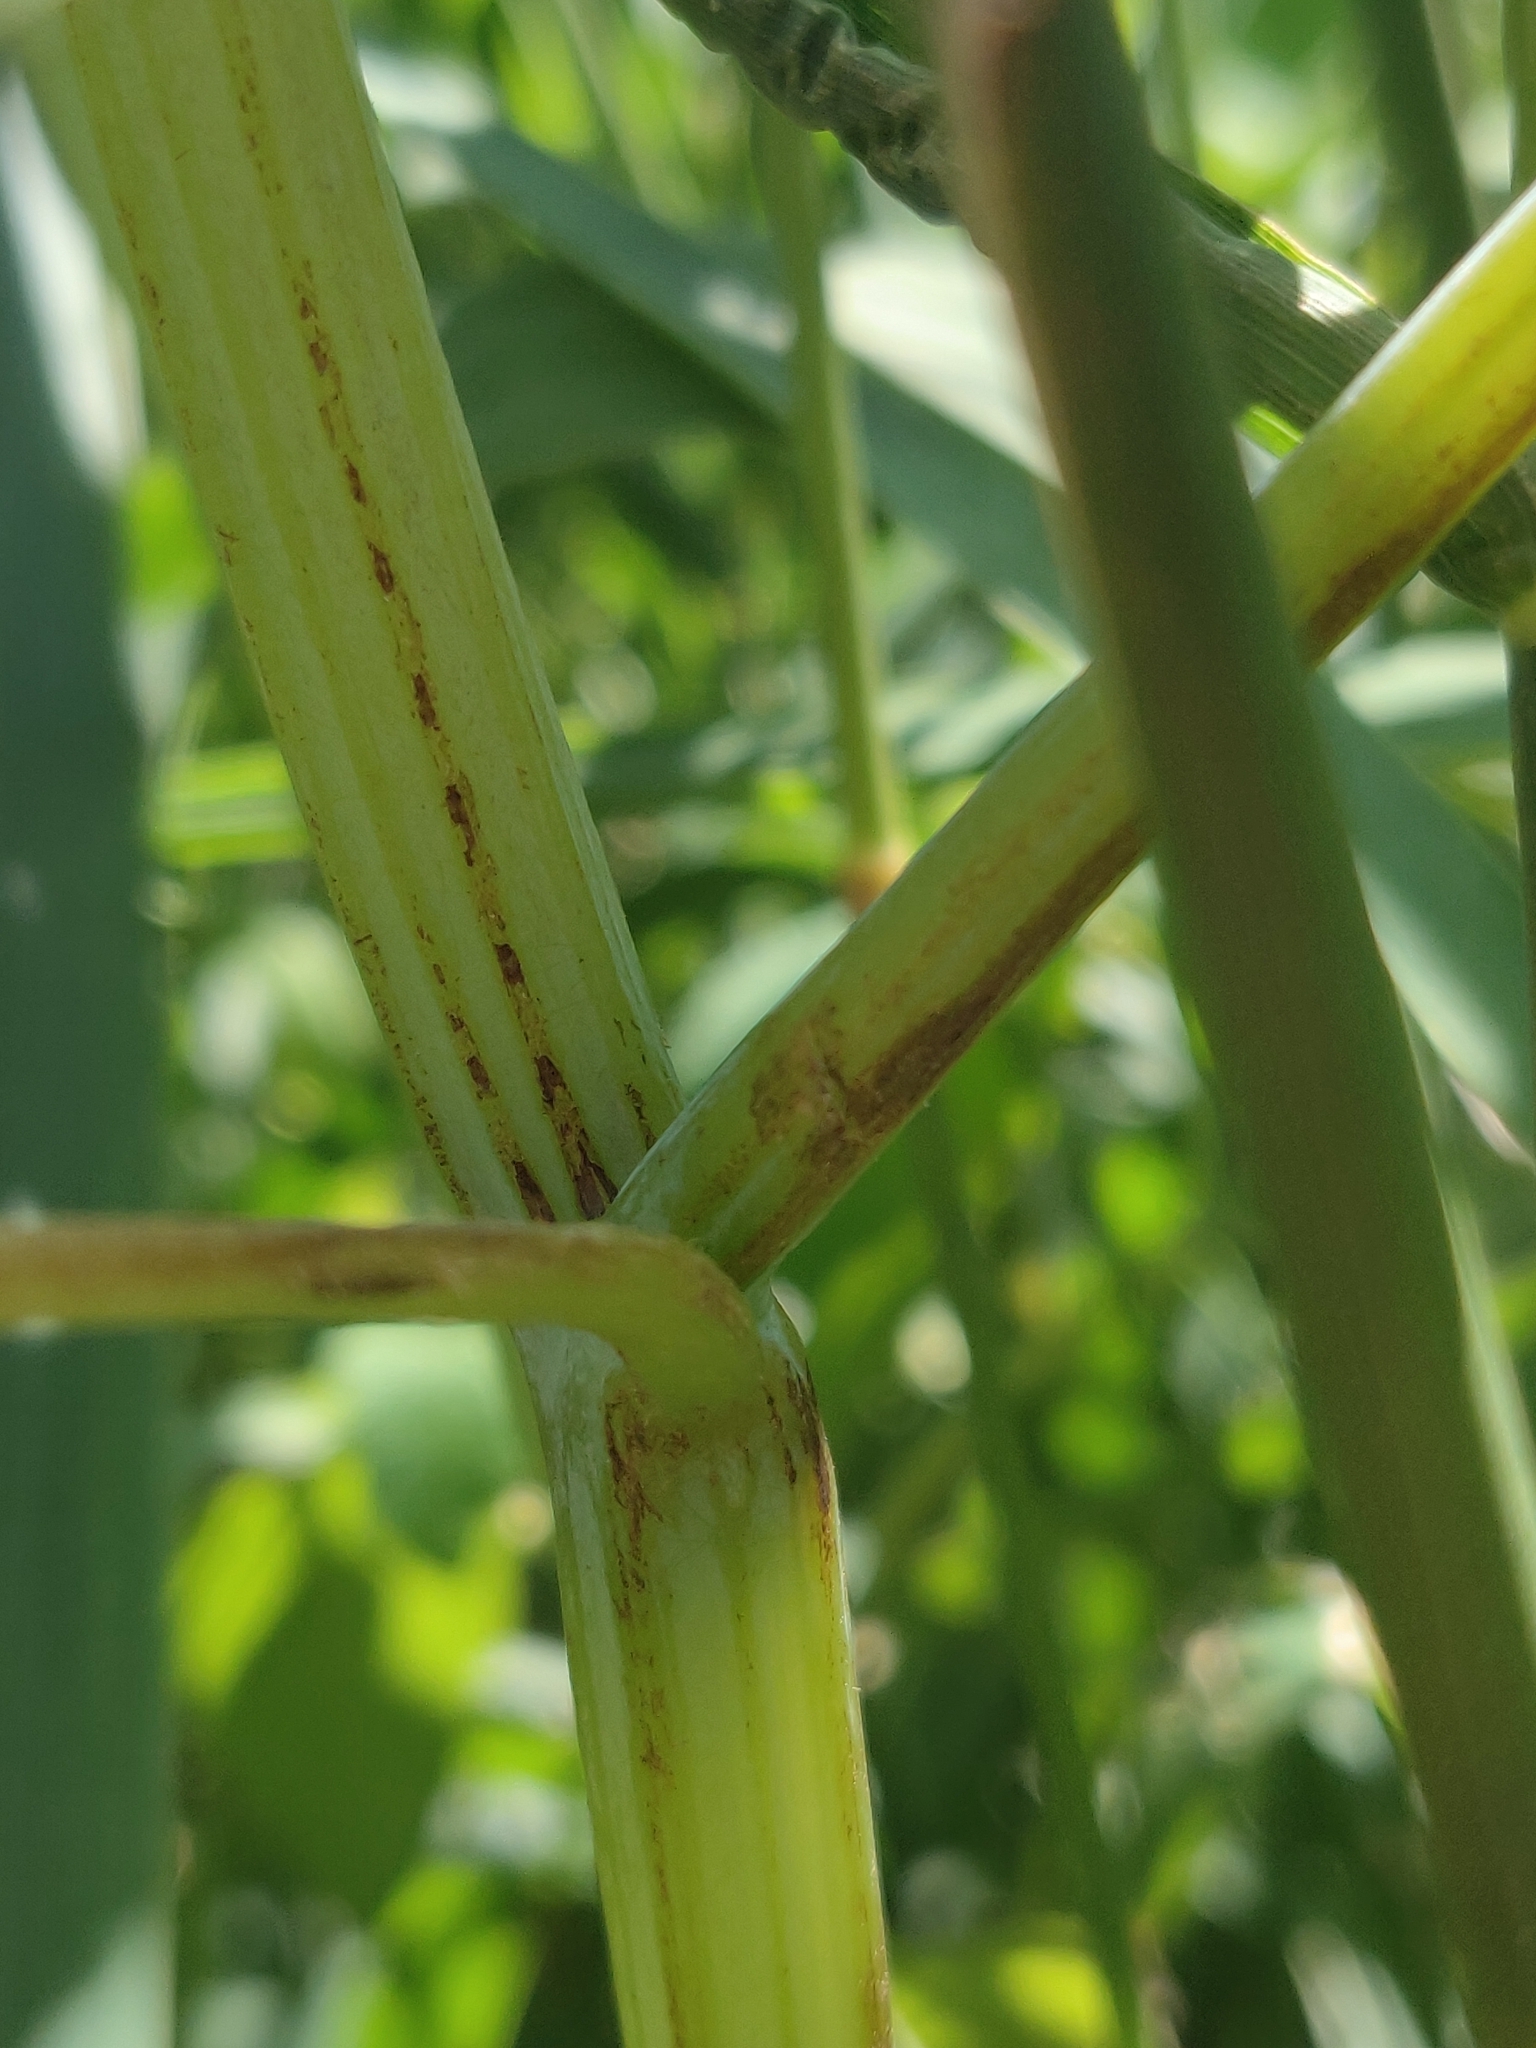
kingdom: Plantae
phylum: Tracheophyta
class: Magnoliopsida
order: Ericales
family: Balsaminaceae
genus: Impatiens
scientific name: Impatiens capensis
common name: Orange balsam
